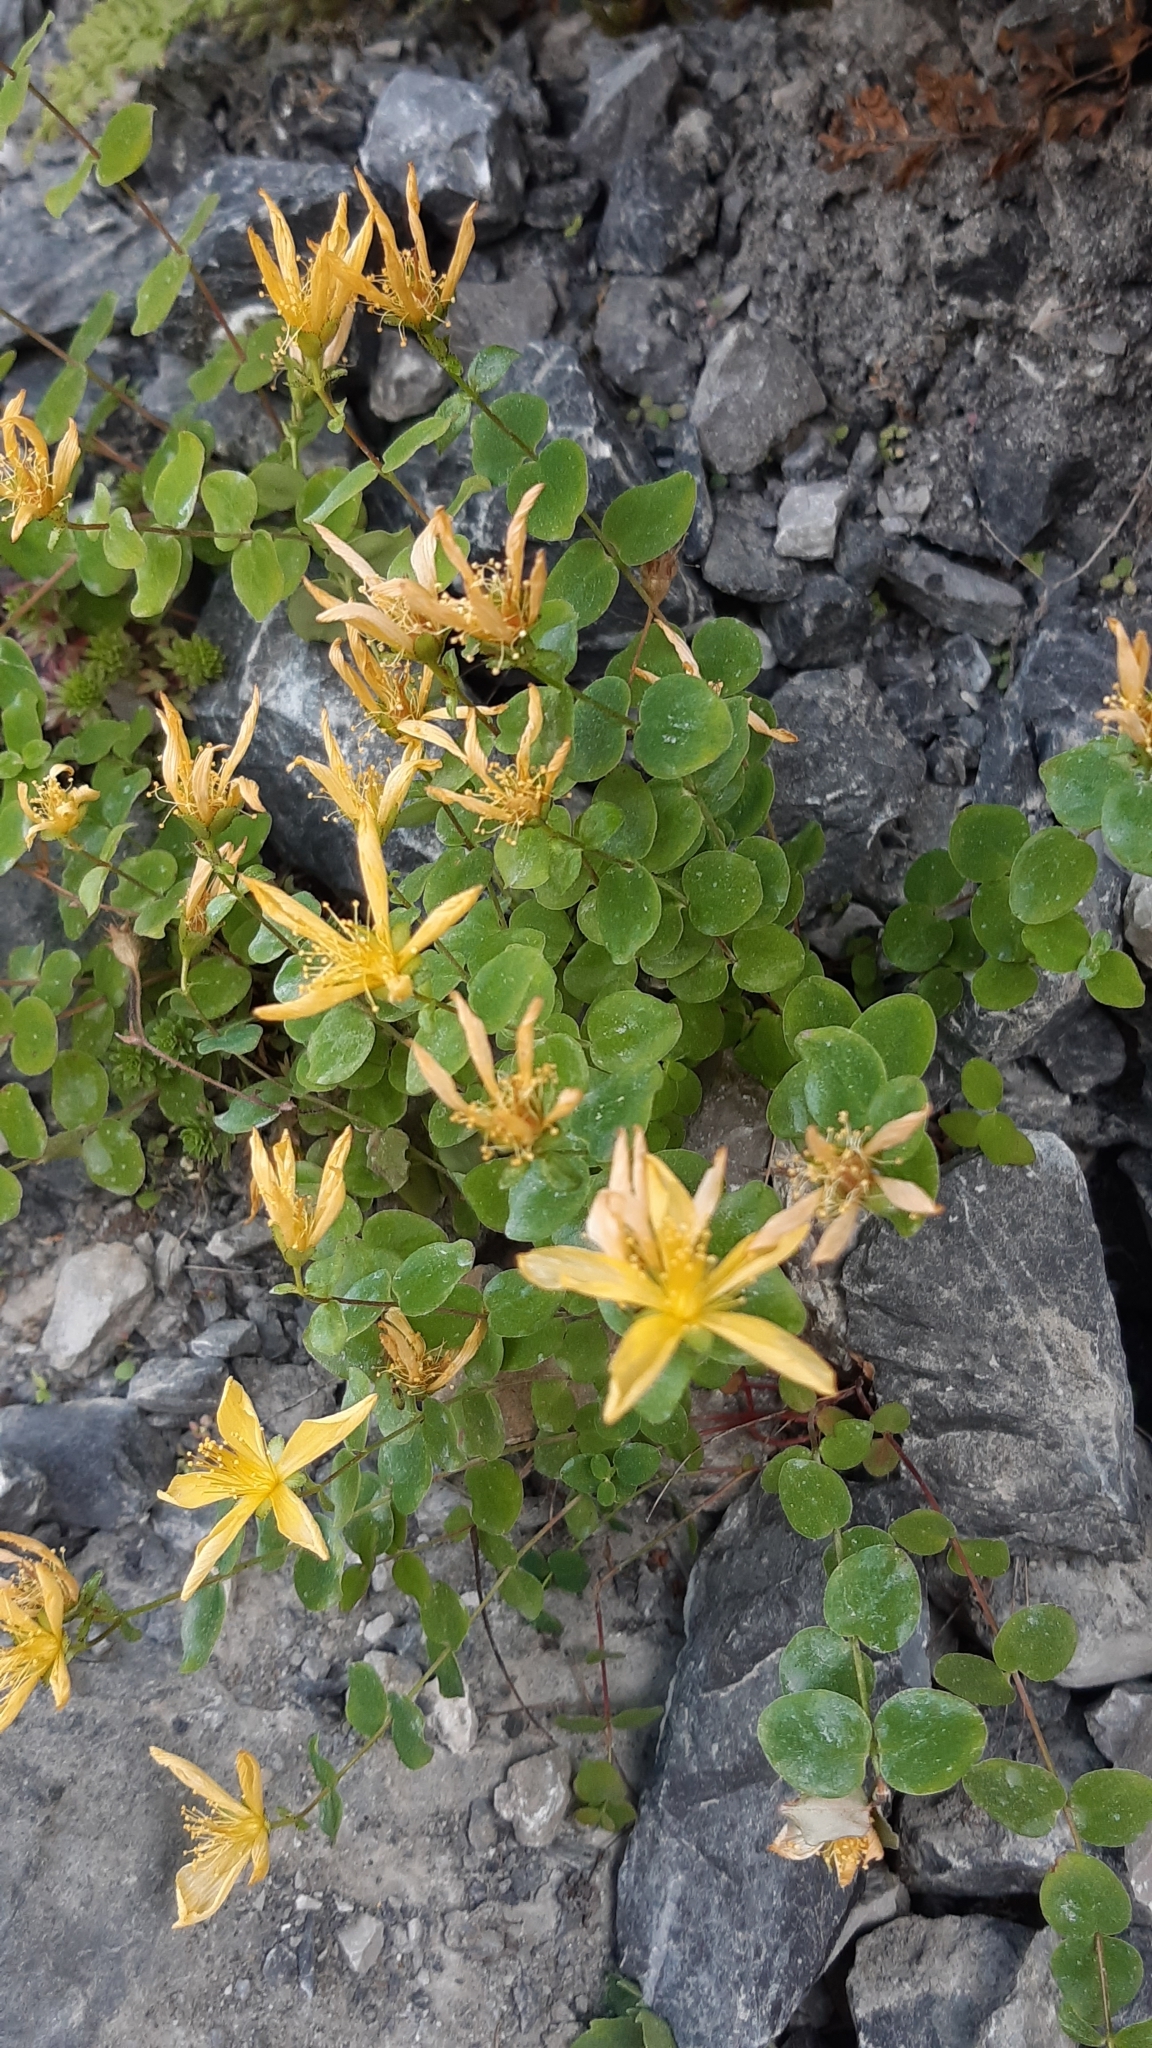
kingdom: Plantae
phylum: Tracheophyta
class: Magnoliopsida
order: Malpighiales
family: Hypericaceae
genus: Hypericum
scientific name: Hypericum nummularium
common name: Round-leaved st john's-wort
